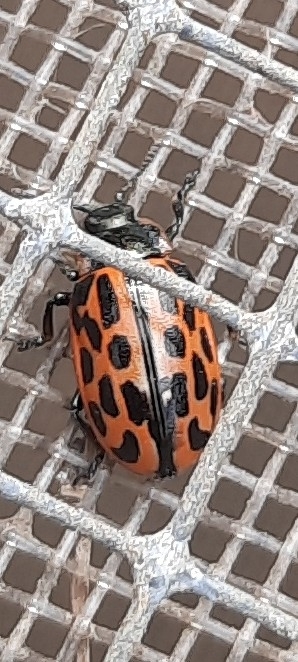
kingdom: Animalia
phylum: Arthropoda
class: Insecta
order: Coleoptera
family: Chrysomelidae
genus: Chrysomela
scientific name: Chrysomela vigintipunctata
